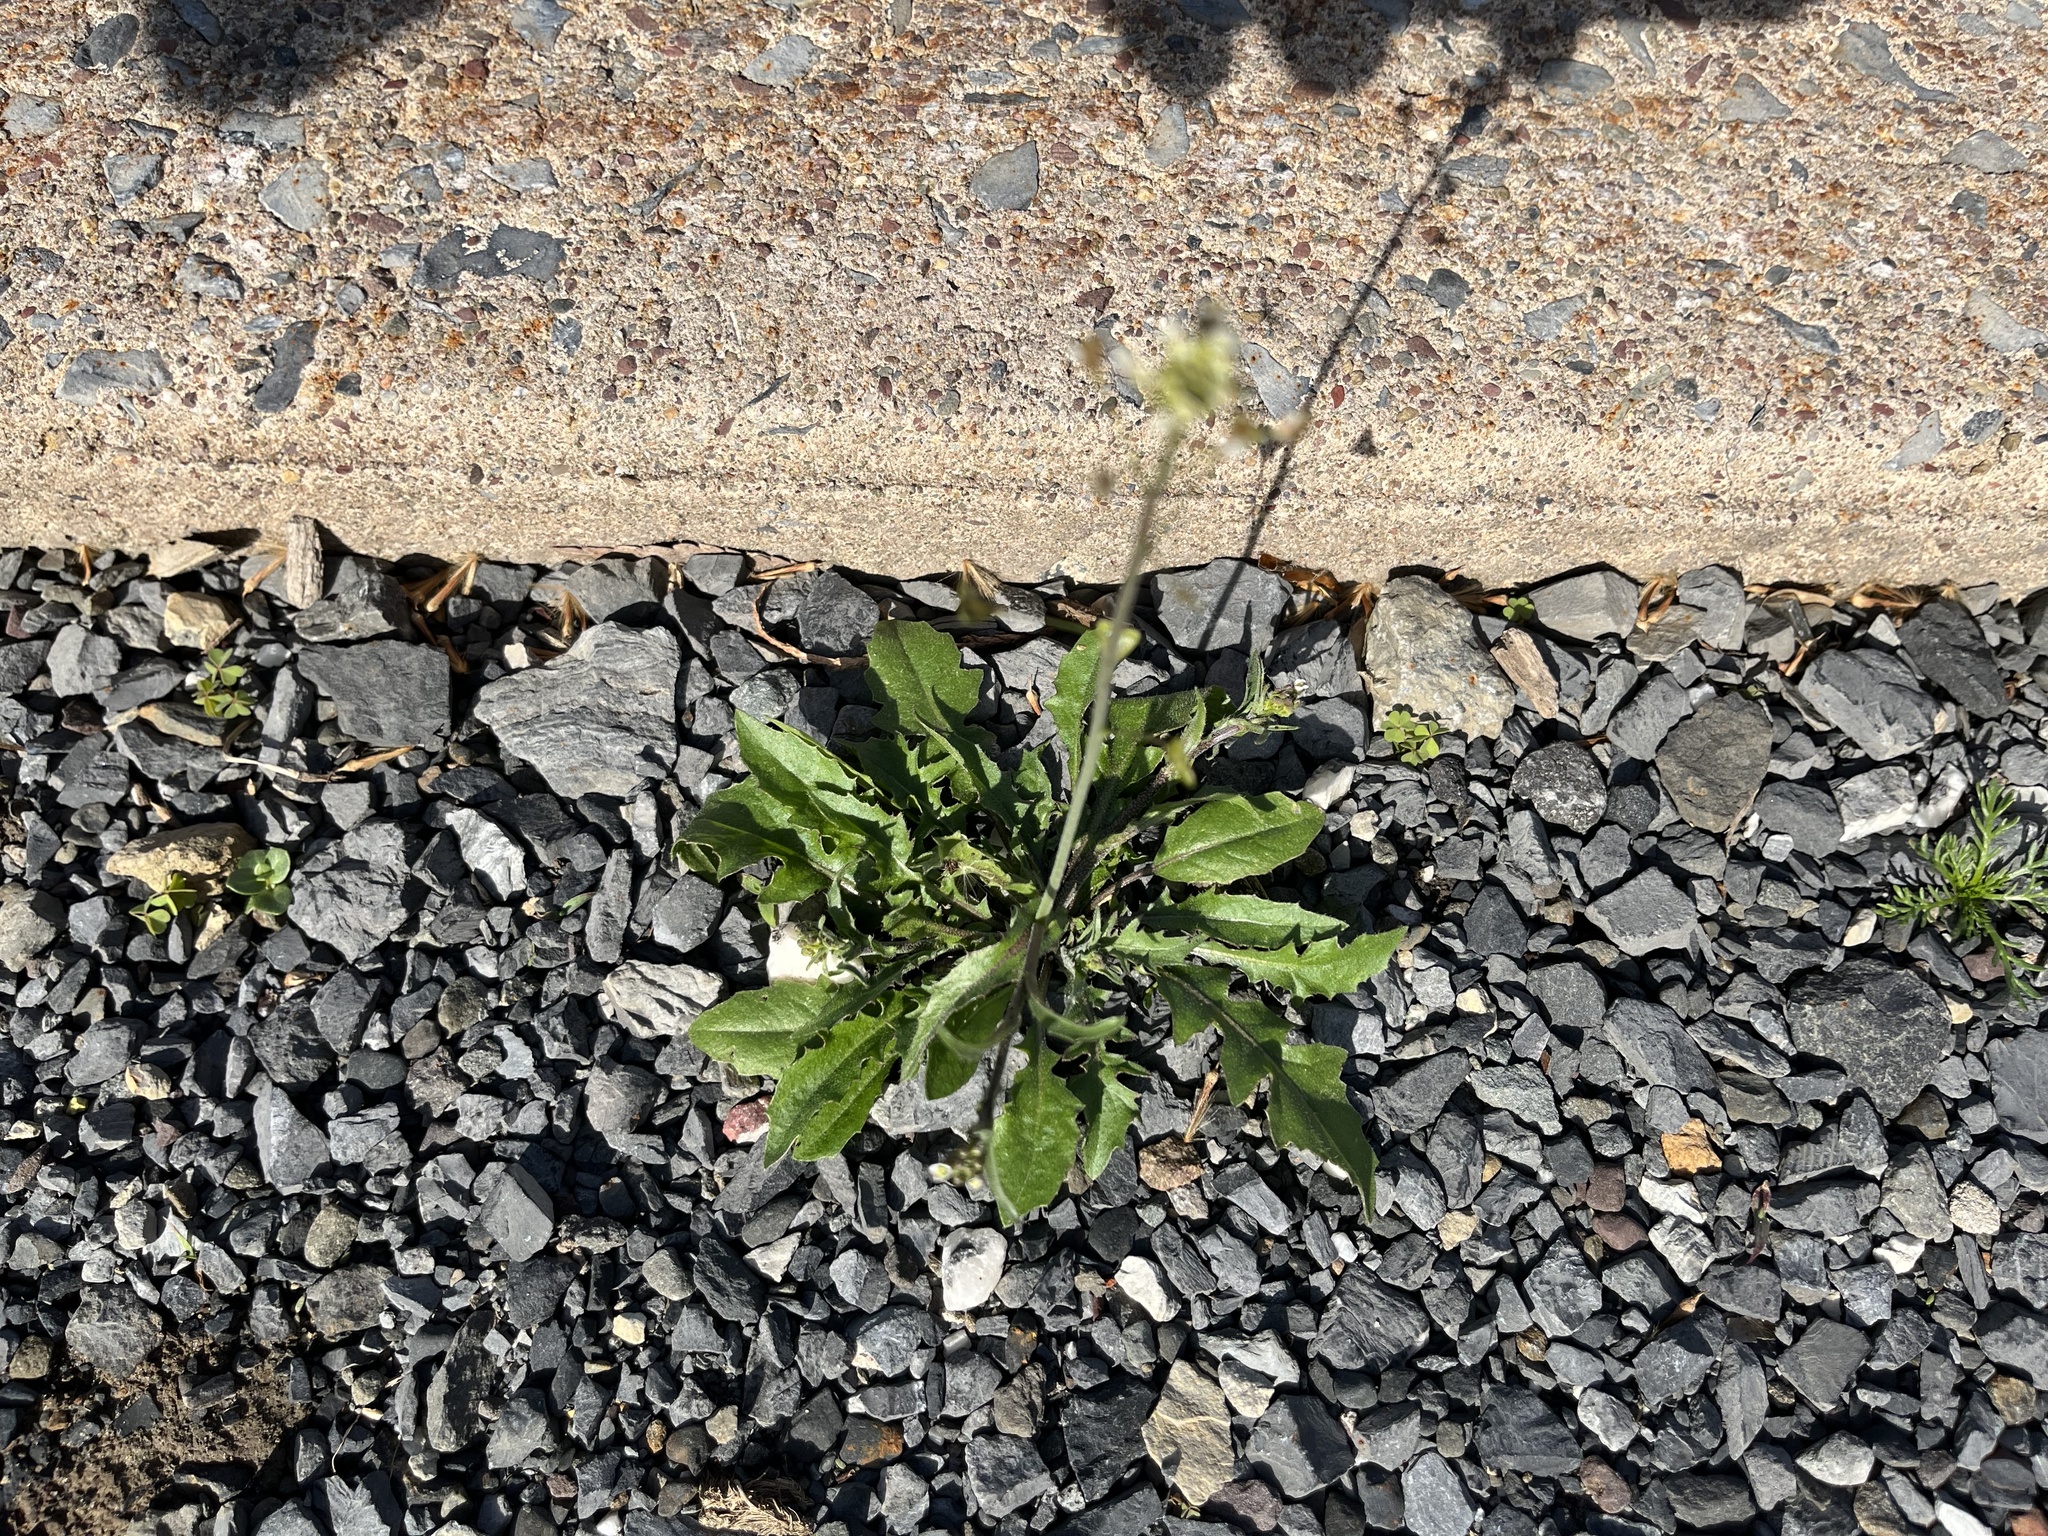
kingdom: Plantae
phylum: Tracheophyta
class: Magnoliopsida
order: Brassicales
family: Brassicaceae
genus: Capsella
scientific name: Capsella bursa-pastoris
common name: Shepherd's purse
